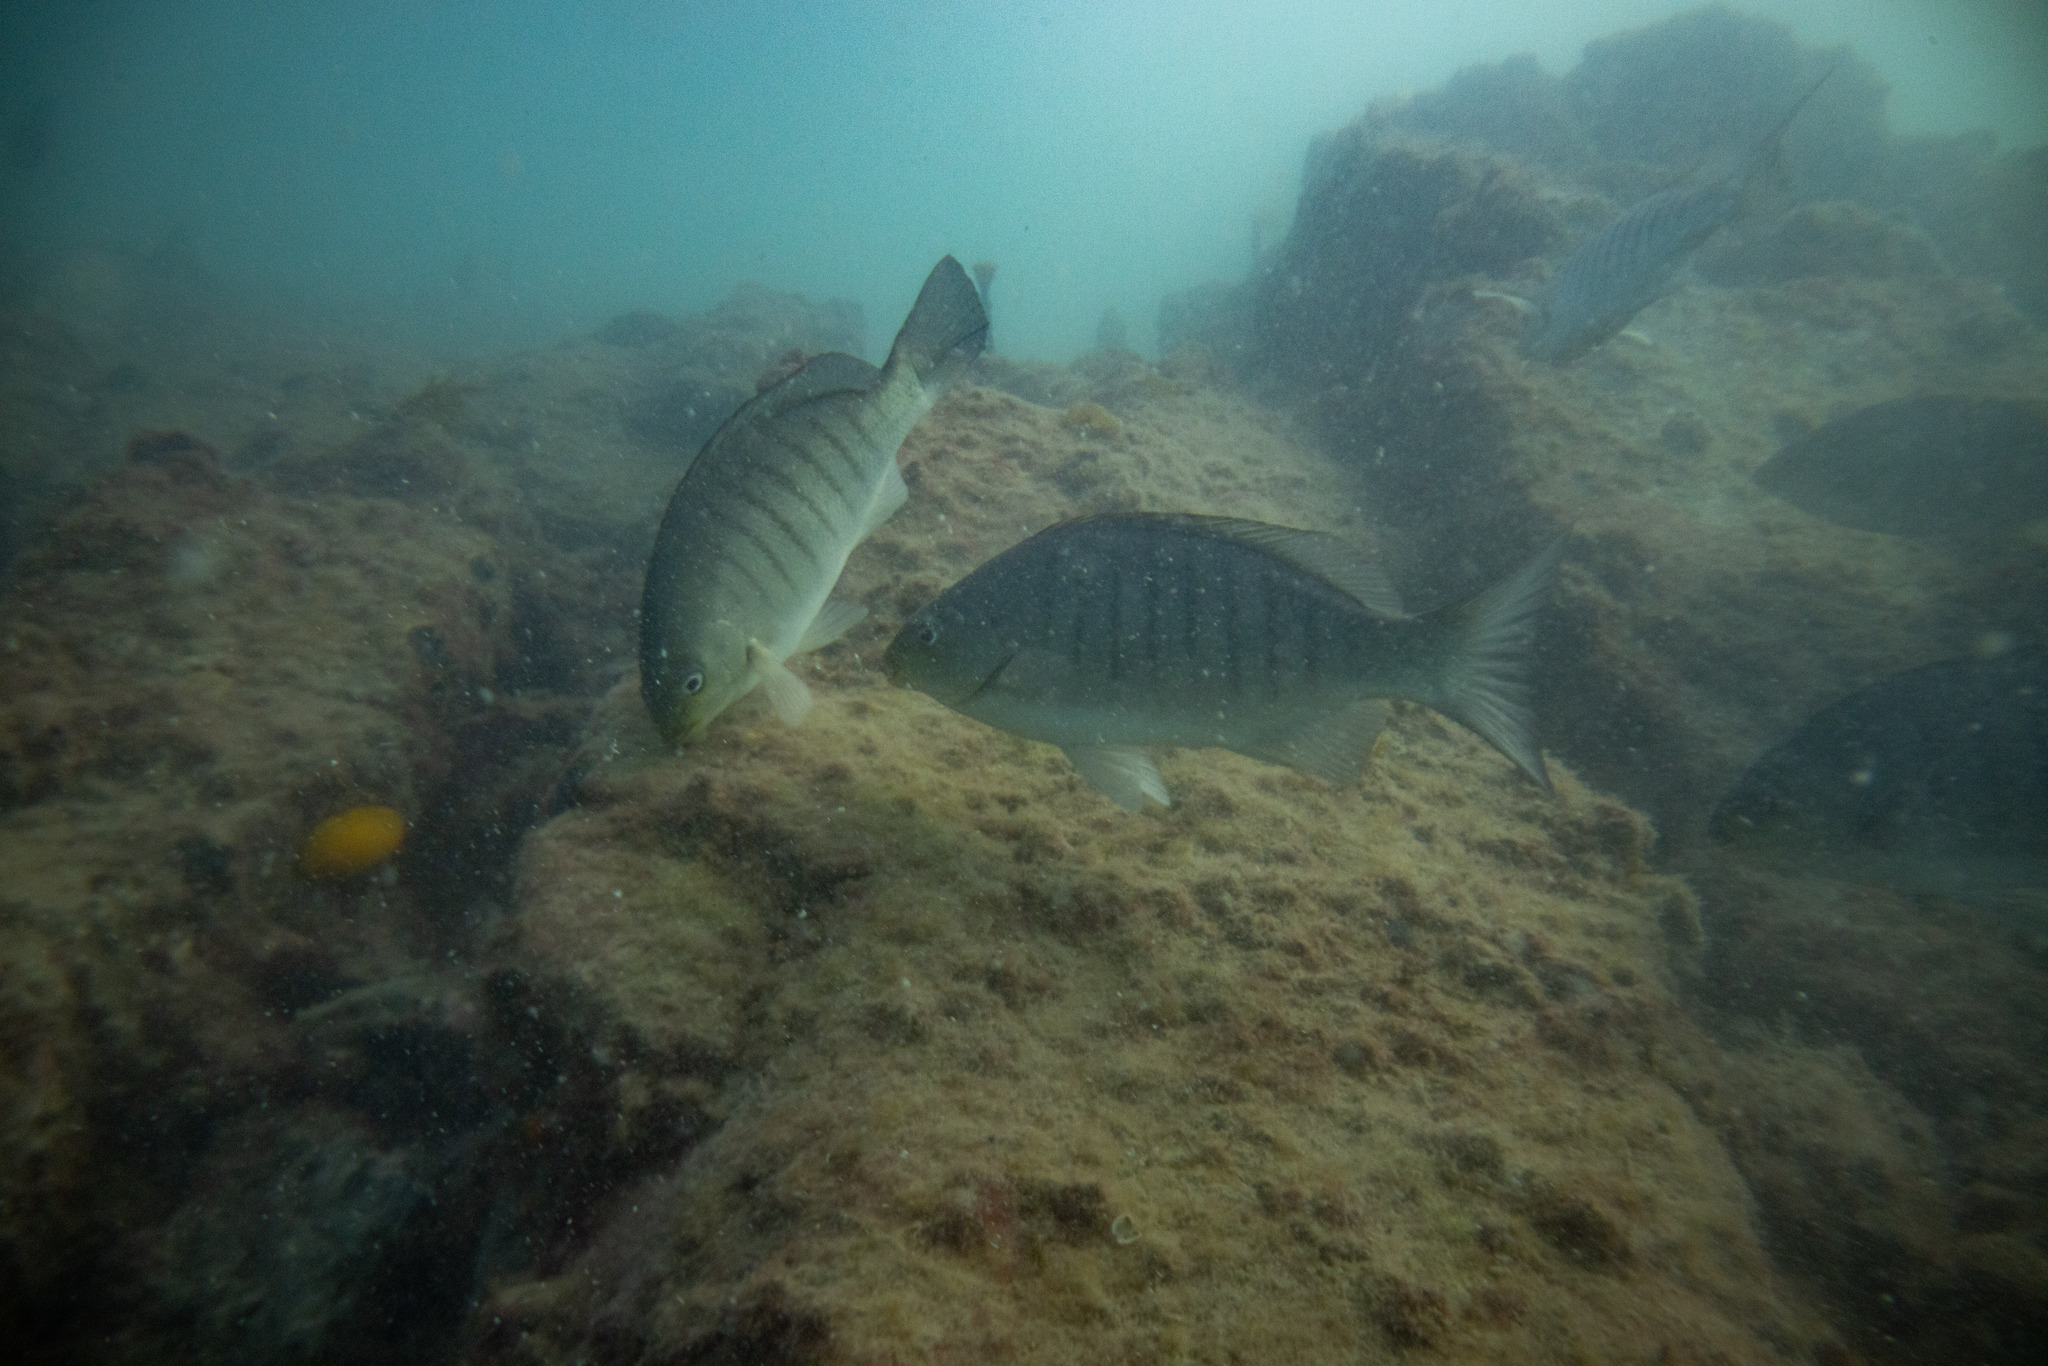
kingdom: Animalia
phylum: Chordata
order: Perciformes
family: Kyphosidae
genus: Girella
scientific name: Girella tricuspidata
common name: Parore
